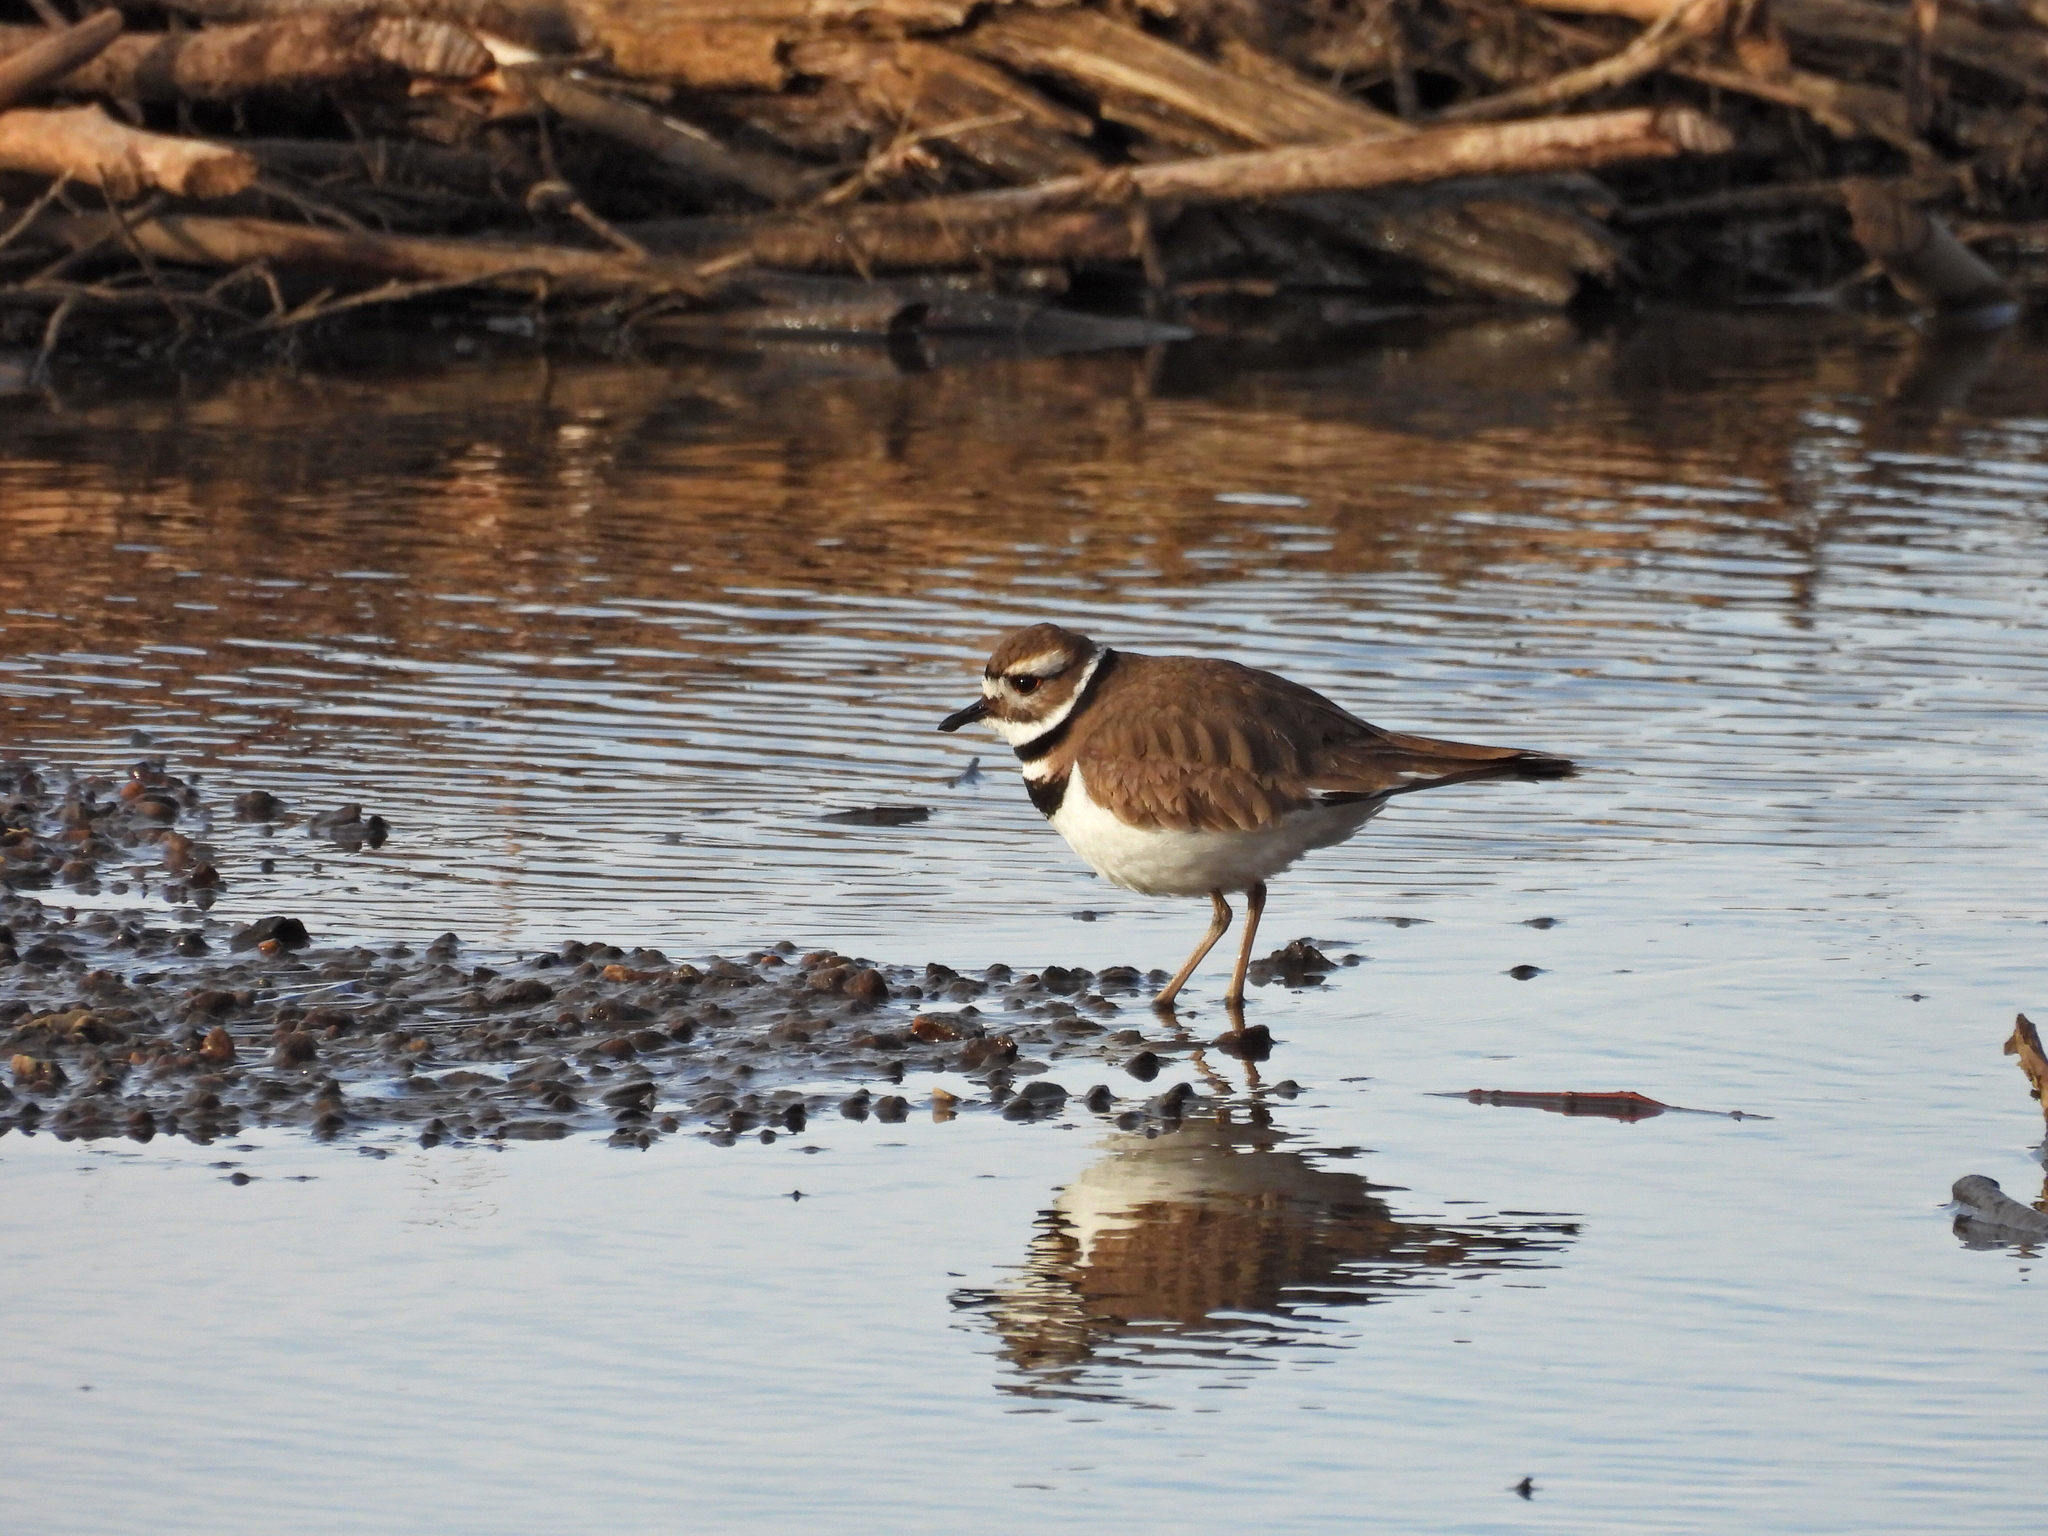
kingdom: Animalia
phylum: Chordata
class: Aves
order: Charadriiformes
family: Charadriidae
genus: Charadrius
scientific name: Charadrius vociferus
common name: Killdeer
